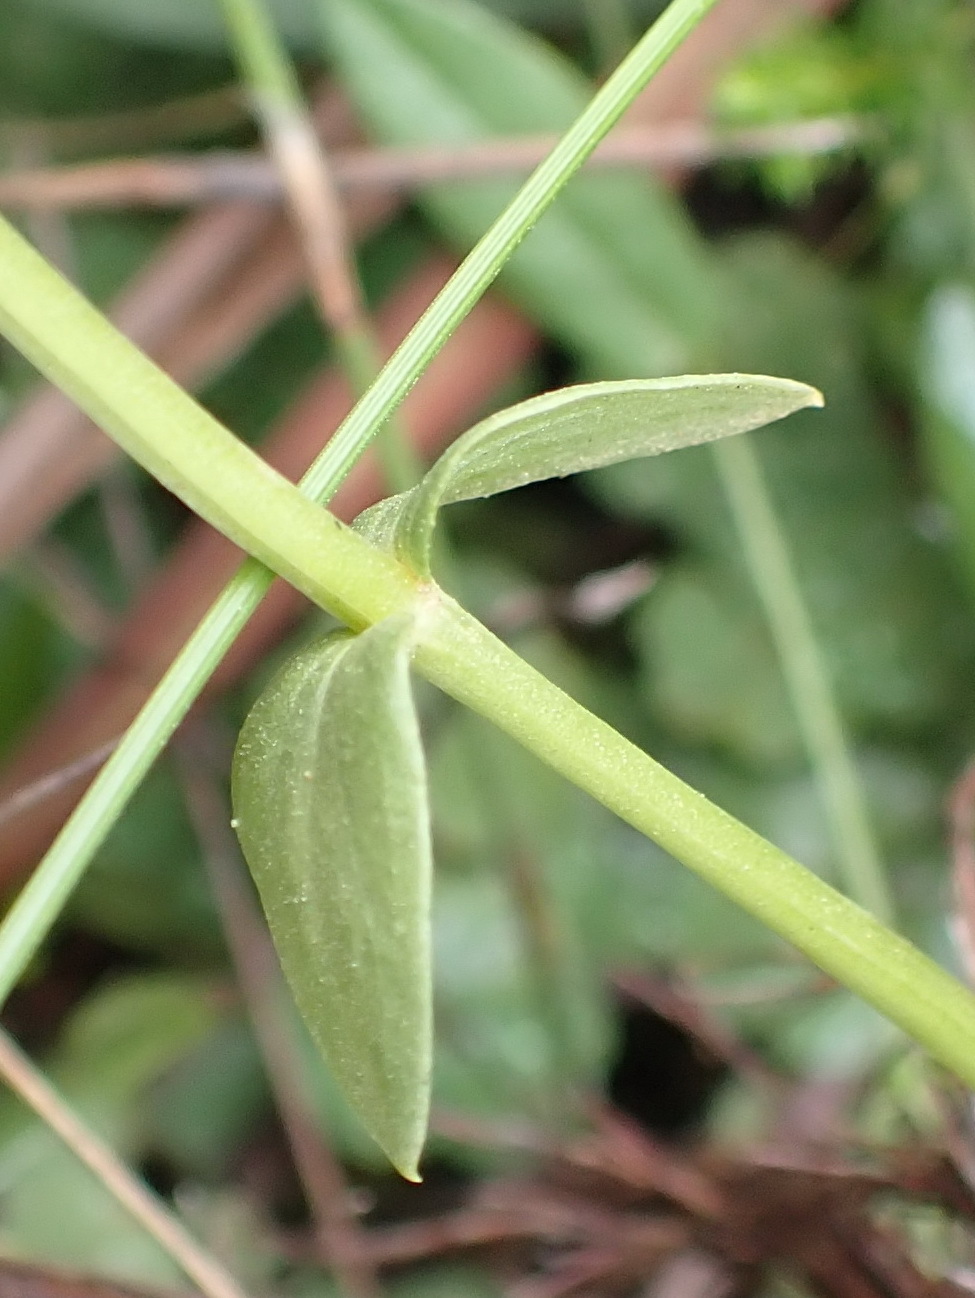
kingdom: Plantae
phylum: Tracheophyta
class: Magnoliopsida
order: Gentianales
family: Gentianaceae
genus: Sebaea
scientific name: Sebaea aurea
